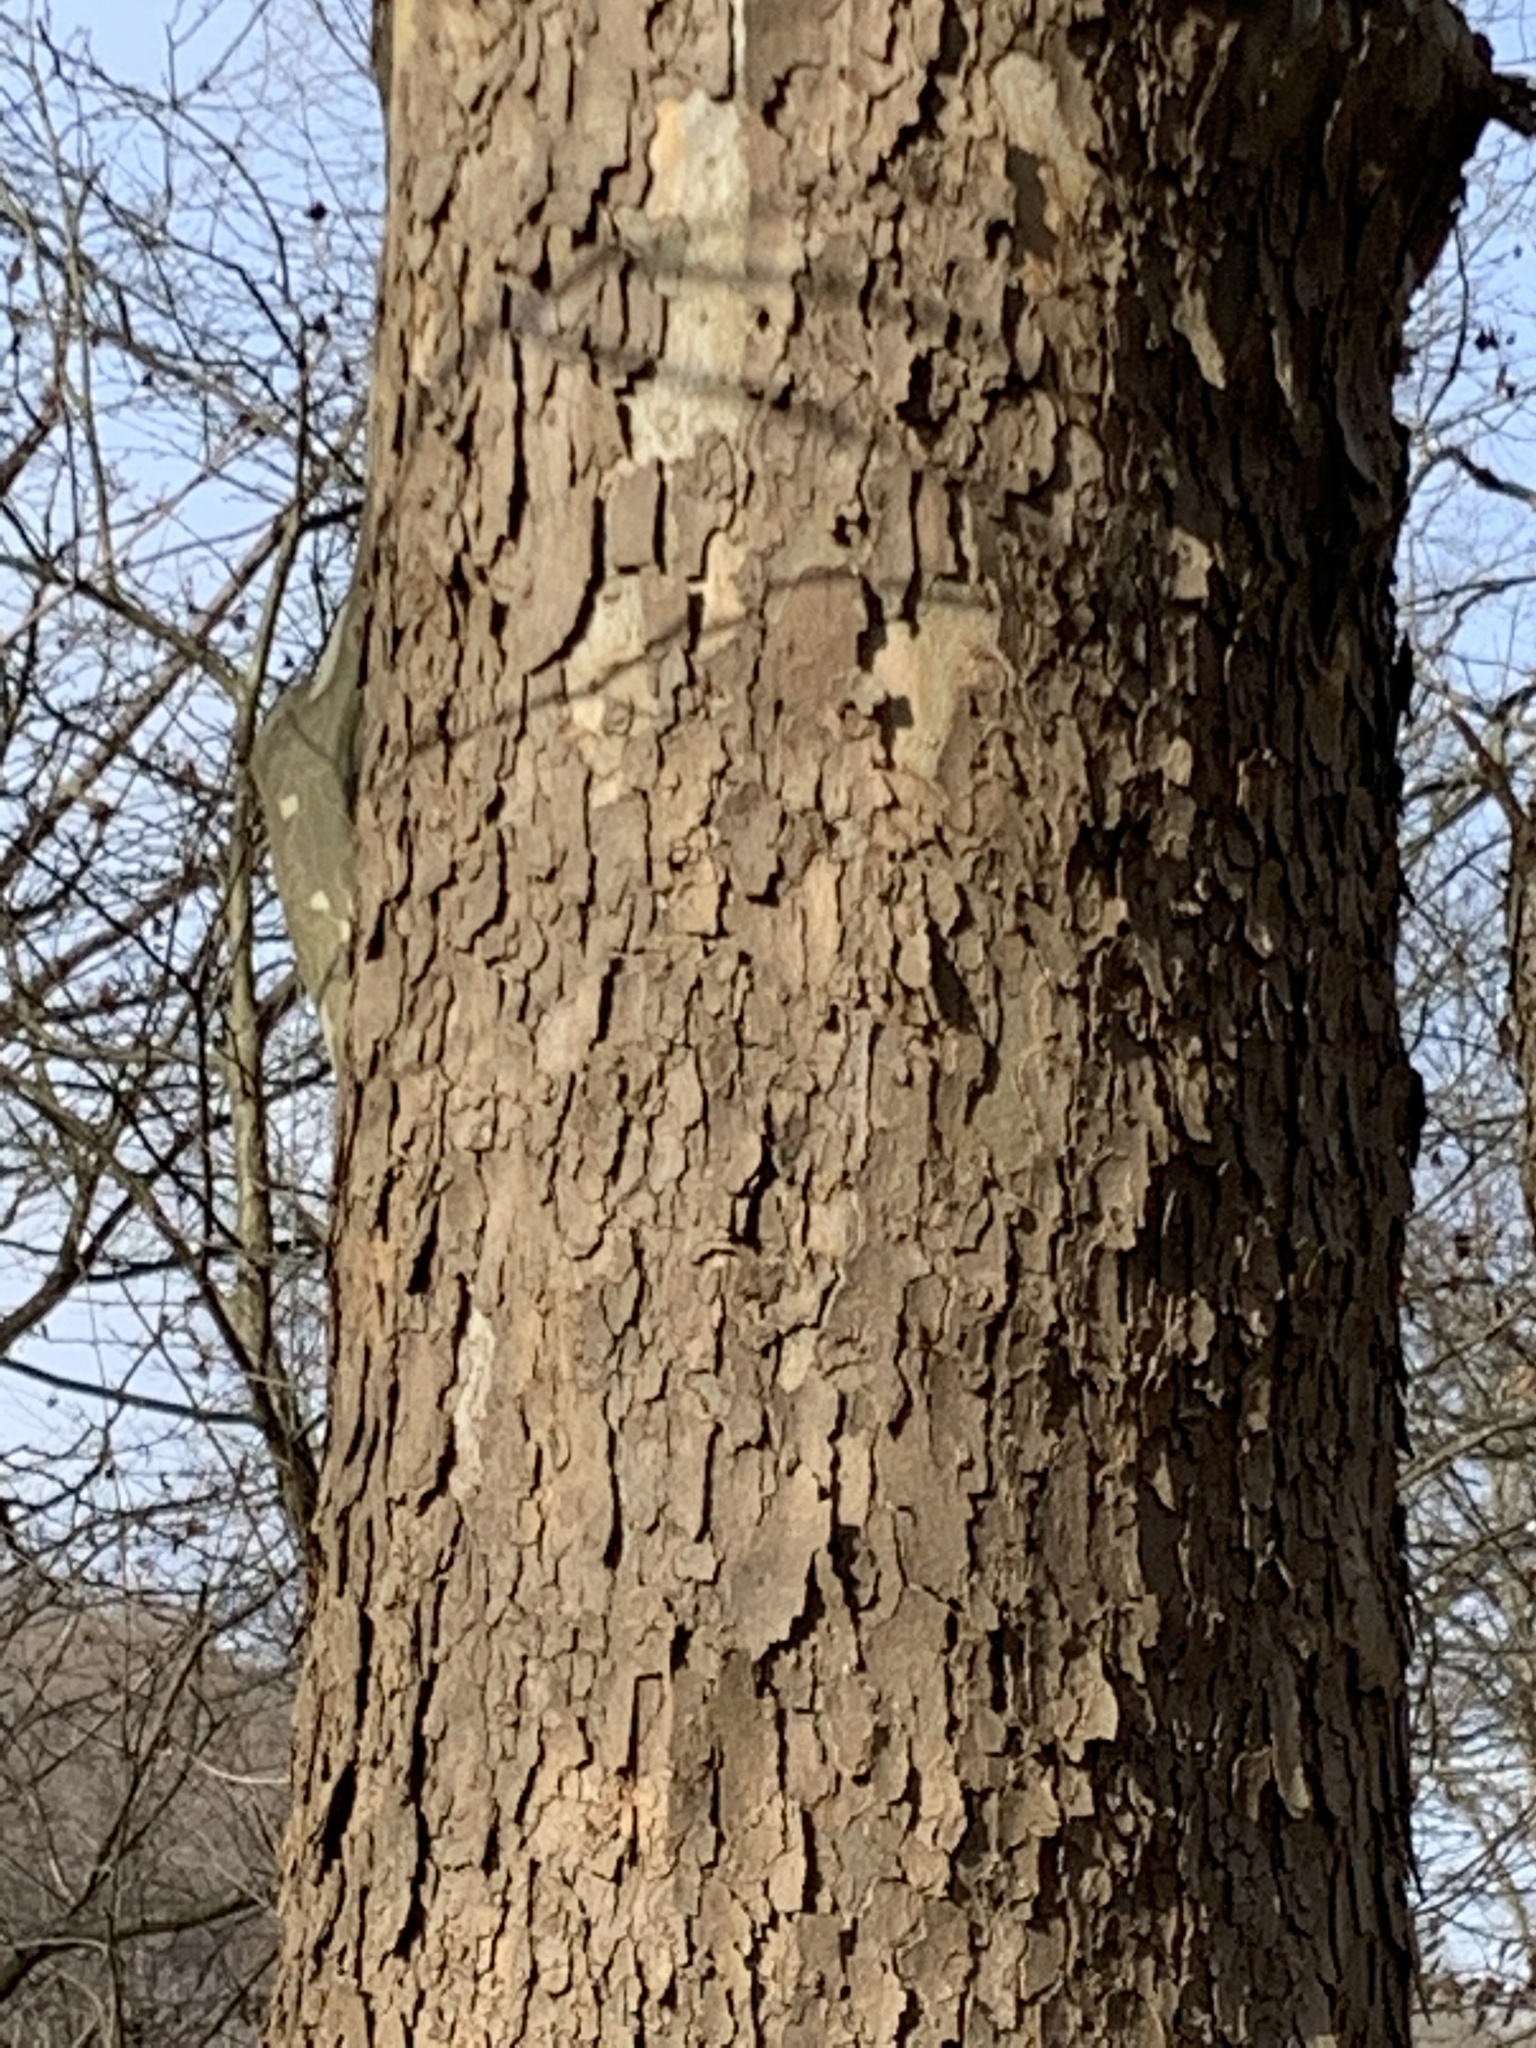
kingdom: Plantae
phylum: Tracheophyta
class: Magnoliopsida
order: Proteales
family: Platanaceae
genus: Platanus
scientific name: Platanus occidentalis
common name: American sycamore
